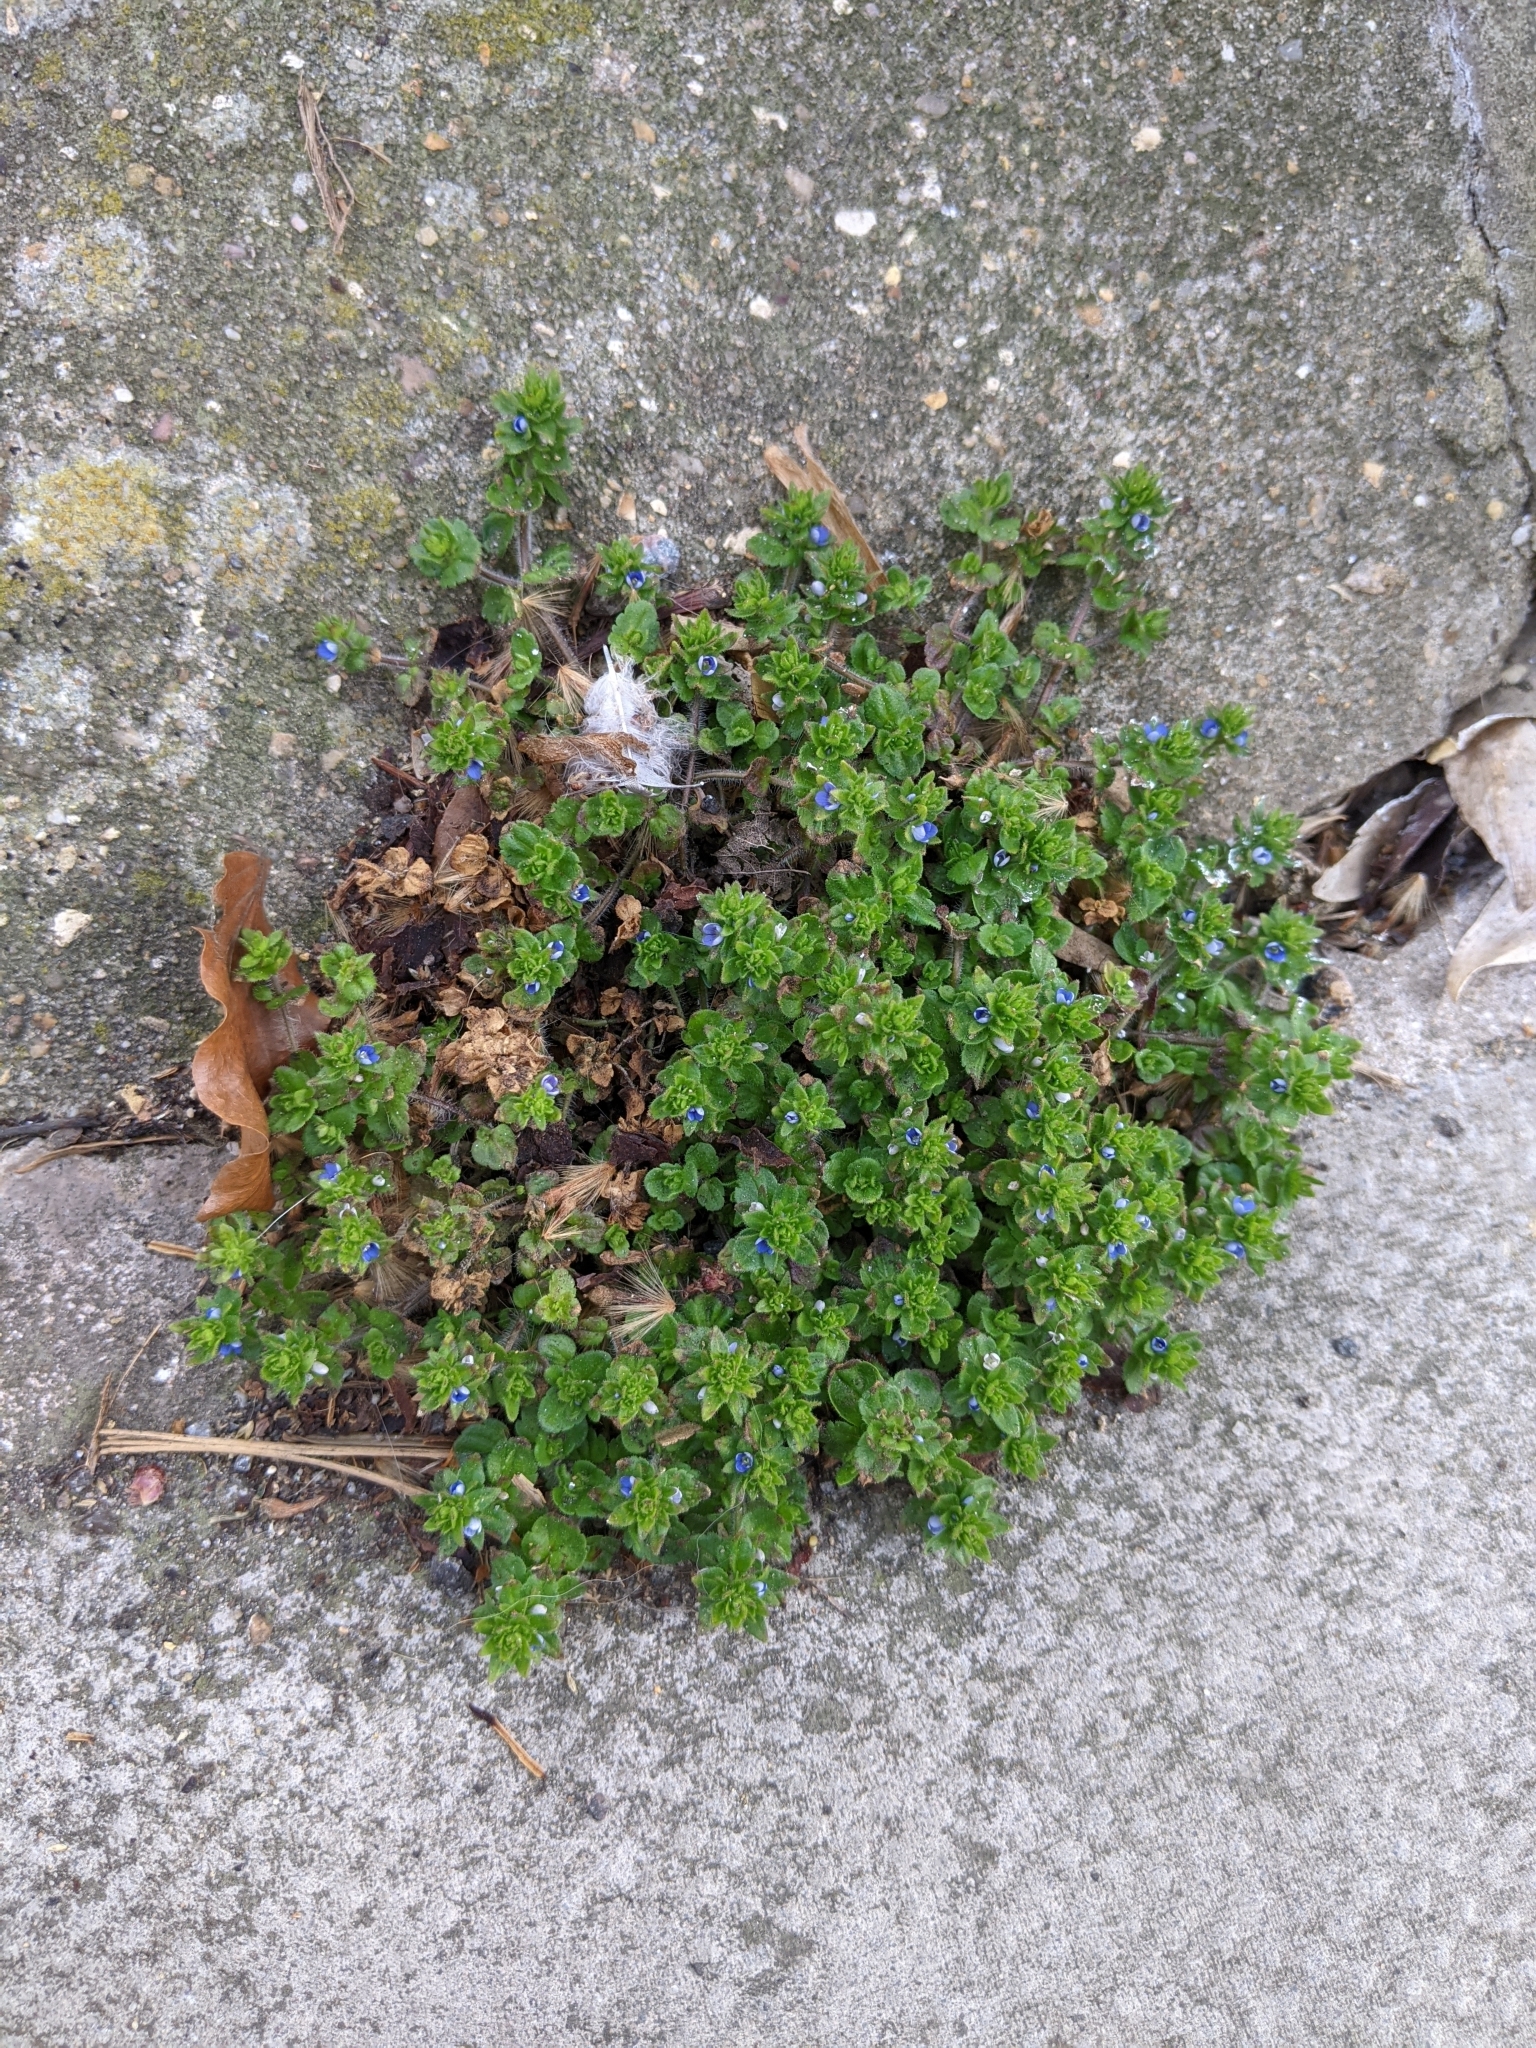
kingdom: Plantae
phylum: Tracheophyta
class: Magnoliopsida
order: Lamiales
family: Plantaginaceae
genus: Veronica
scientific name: Veronica arvensis
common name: Corn speedwell
